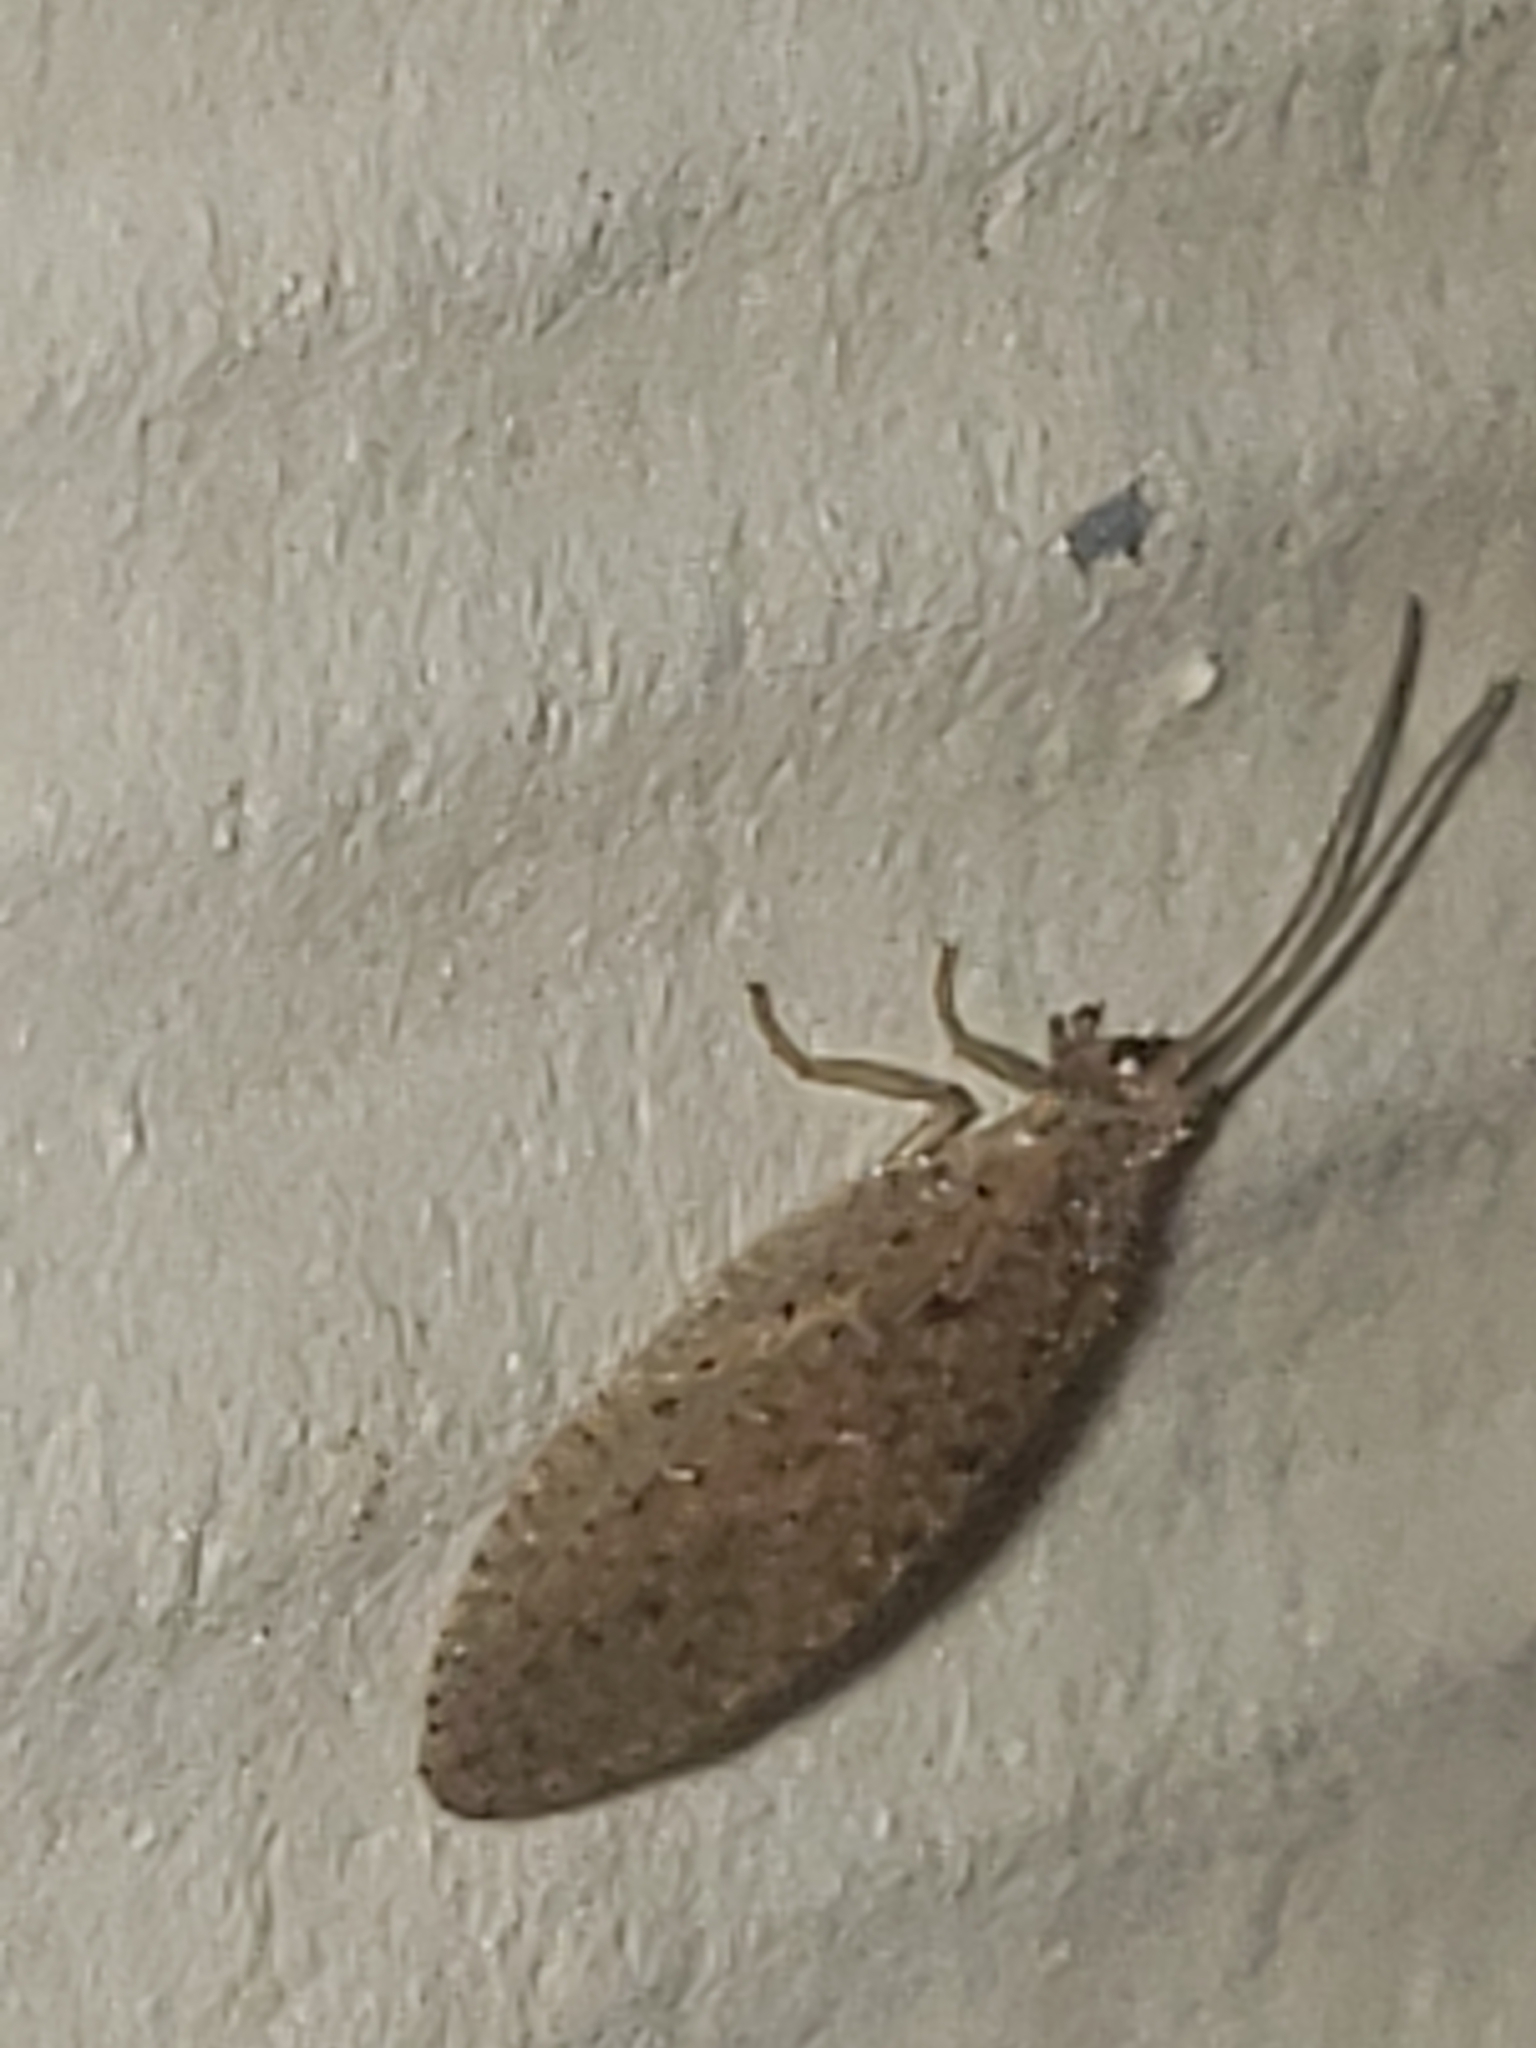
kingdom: Animalia
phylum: Arthropoda
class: Insecta
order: Neuroptera
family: Hemerobiidae
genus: Micromus
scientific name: Micromus subanticus
